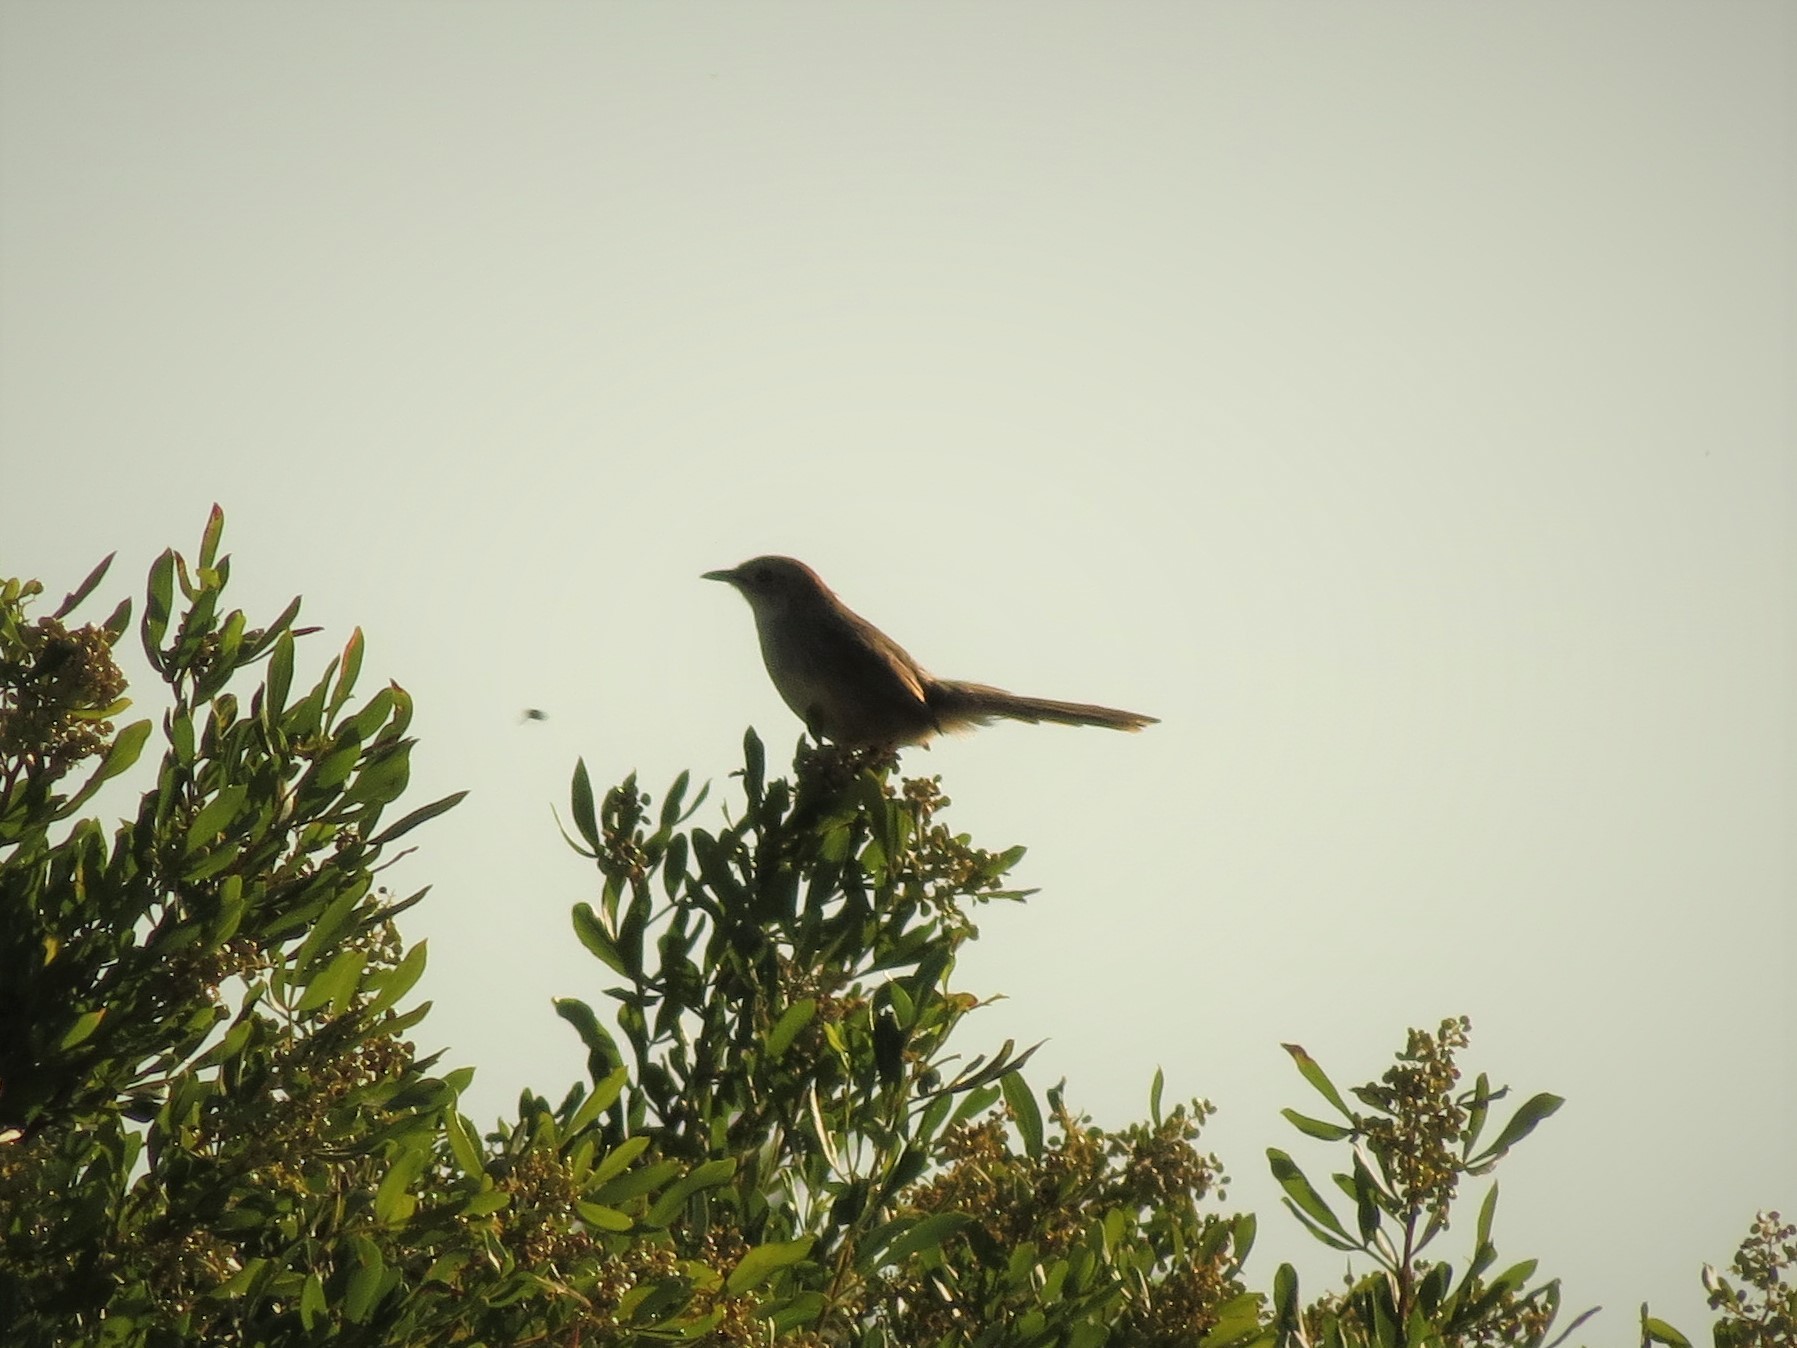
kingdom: Animalia
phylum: Chordata
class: Aves
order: Passeriformes
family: Cisticolidae
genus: Cisticola
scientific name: Cisticola aberrans
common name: Lazy cisticola
